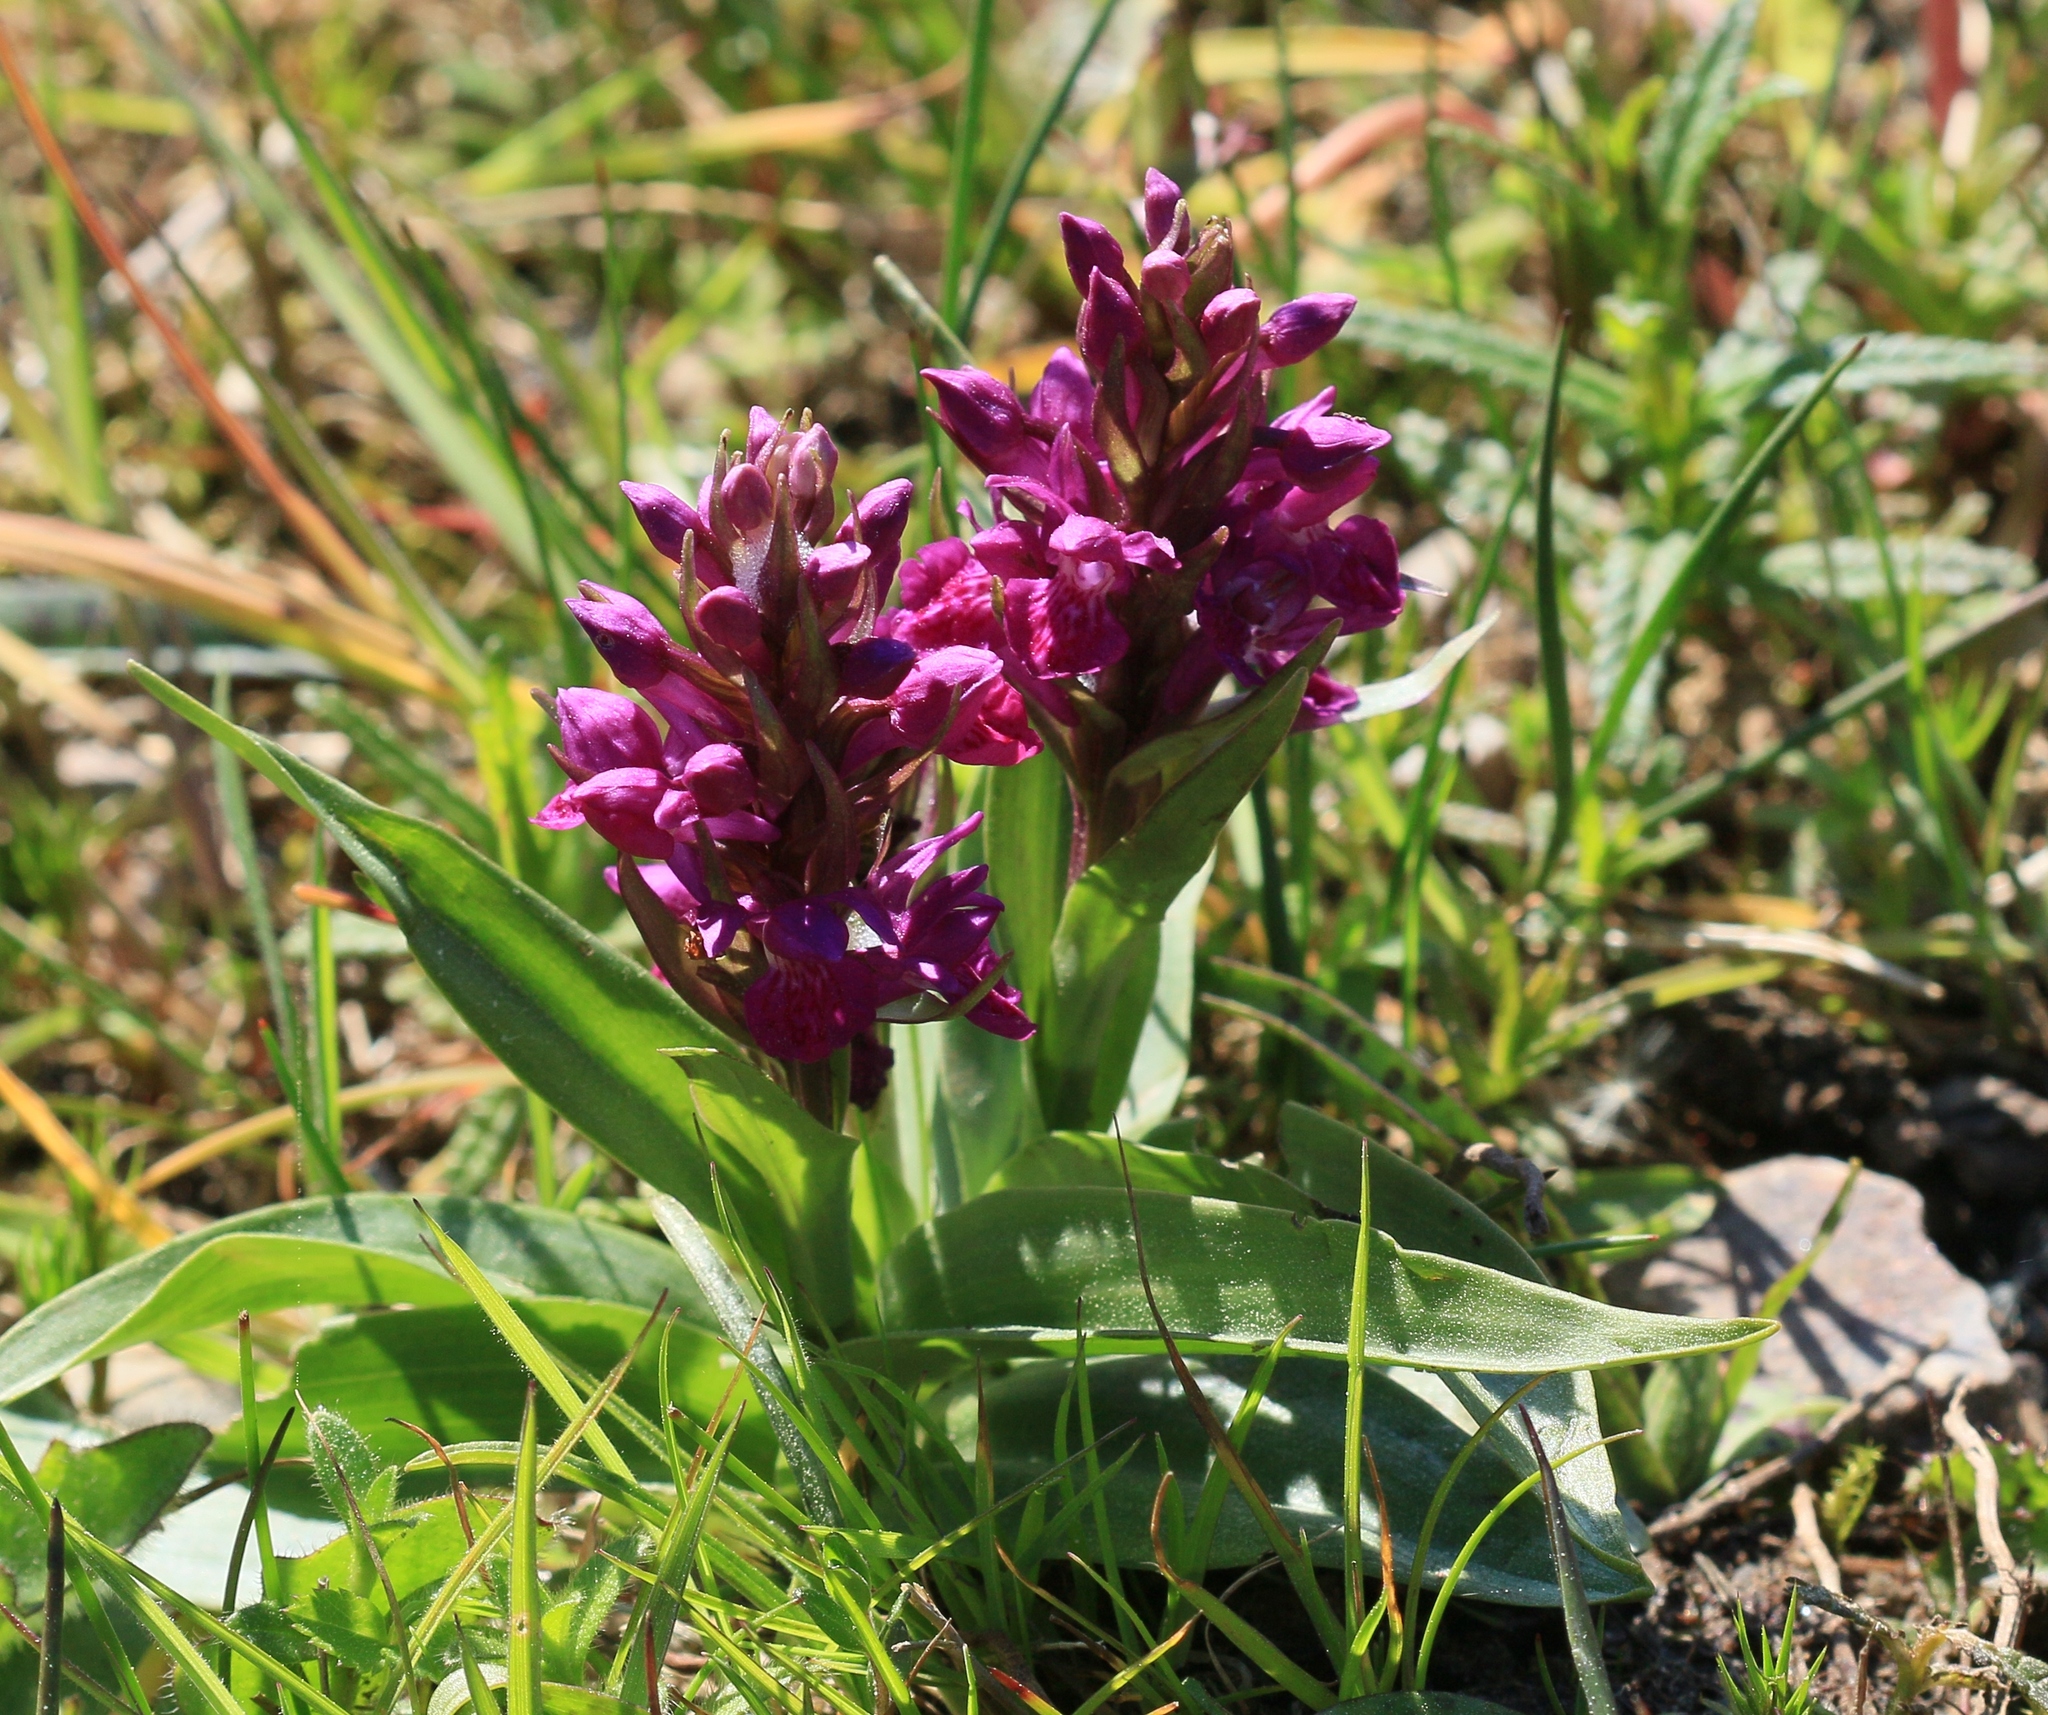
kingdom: Plantae
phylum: Tracheophyta
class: Liliopsida
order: Asparagales
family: Orchidaceae
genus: Dactylorhiza
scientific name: Dactylorhiza majalis
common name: Marsh orchid
